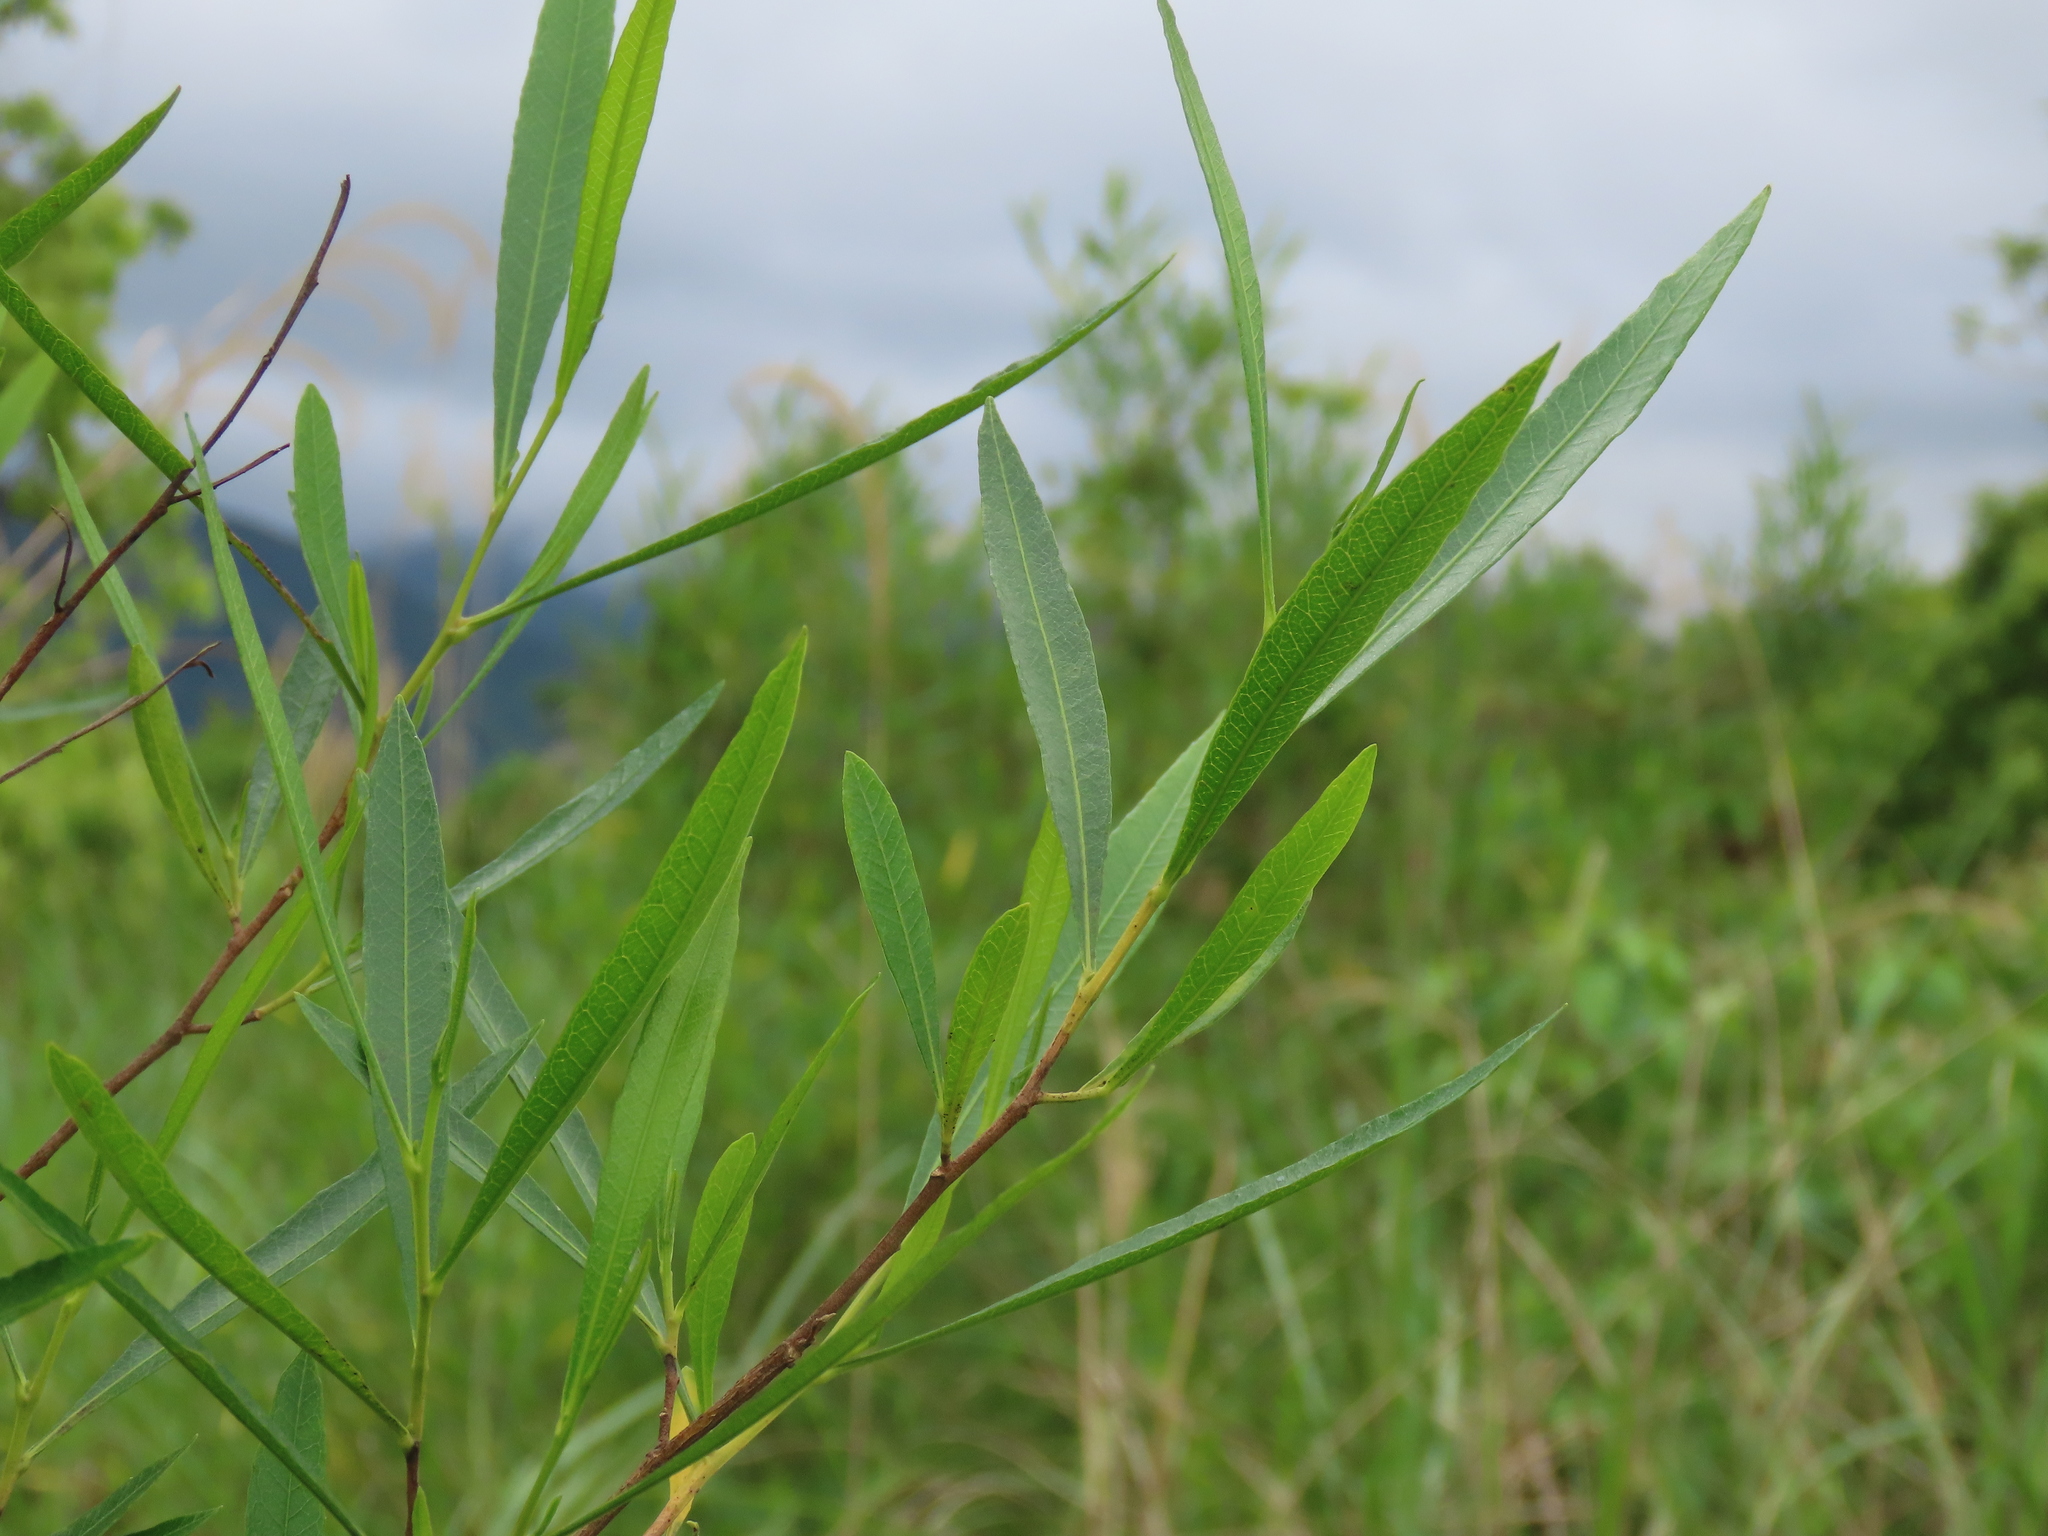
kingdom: Plantae
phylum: Tracheophyta
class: Magnoliopsida
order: Sapindales
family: Sapindaceae
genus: Dodonaea
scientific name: Dodonaea viscosa
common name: Hopbush
